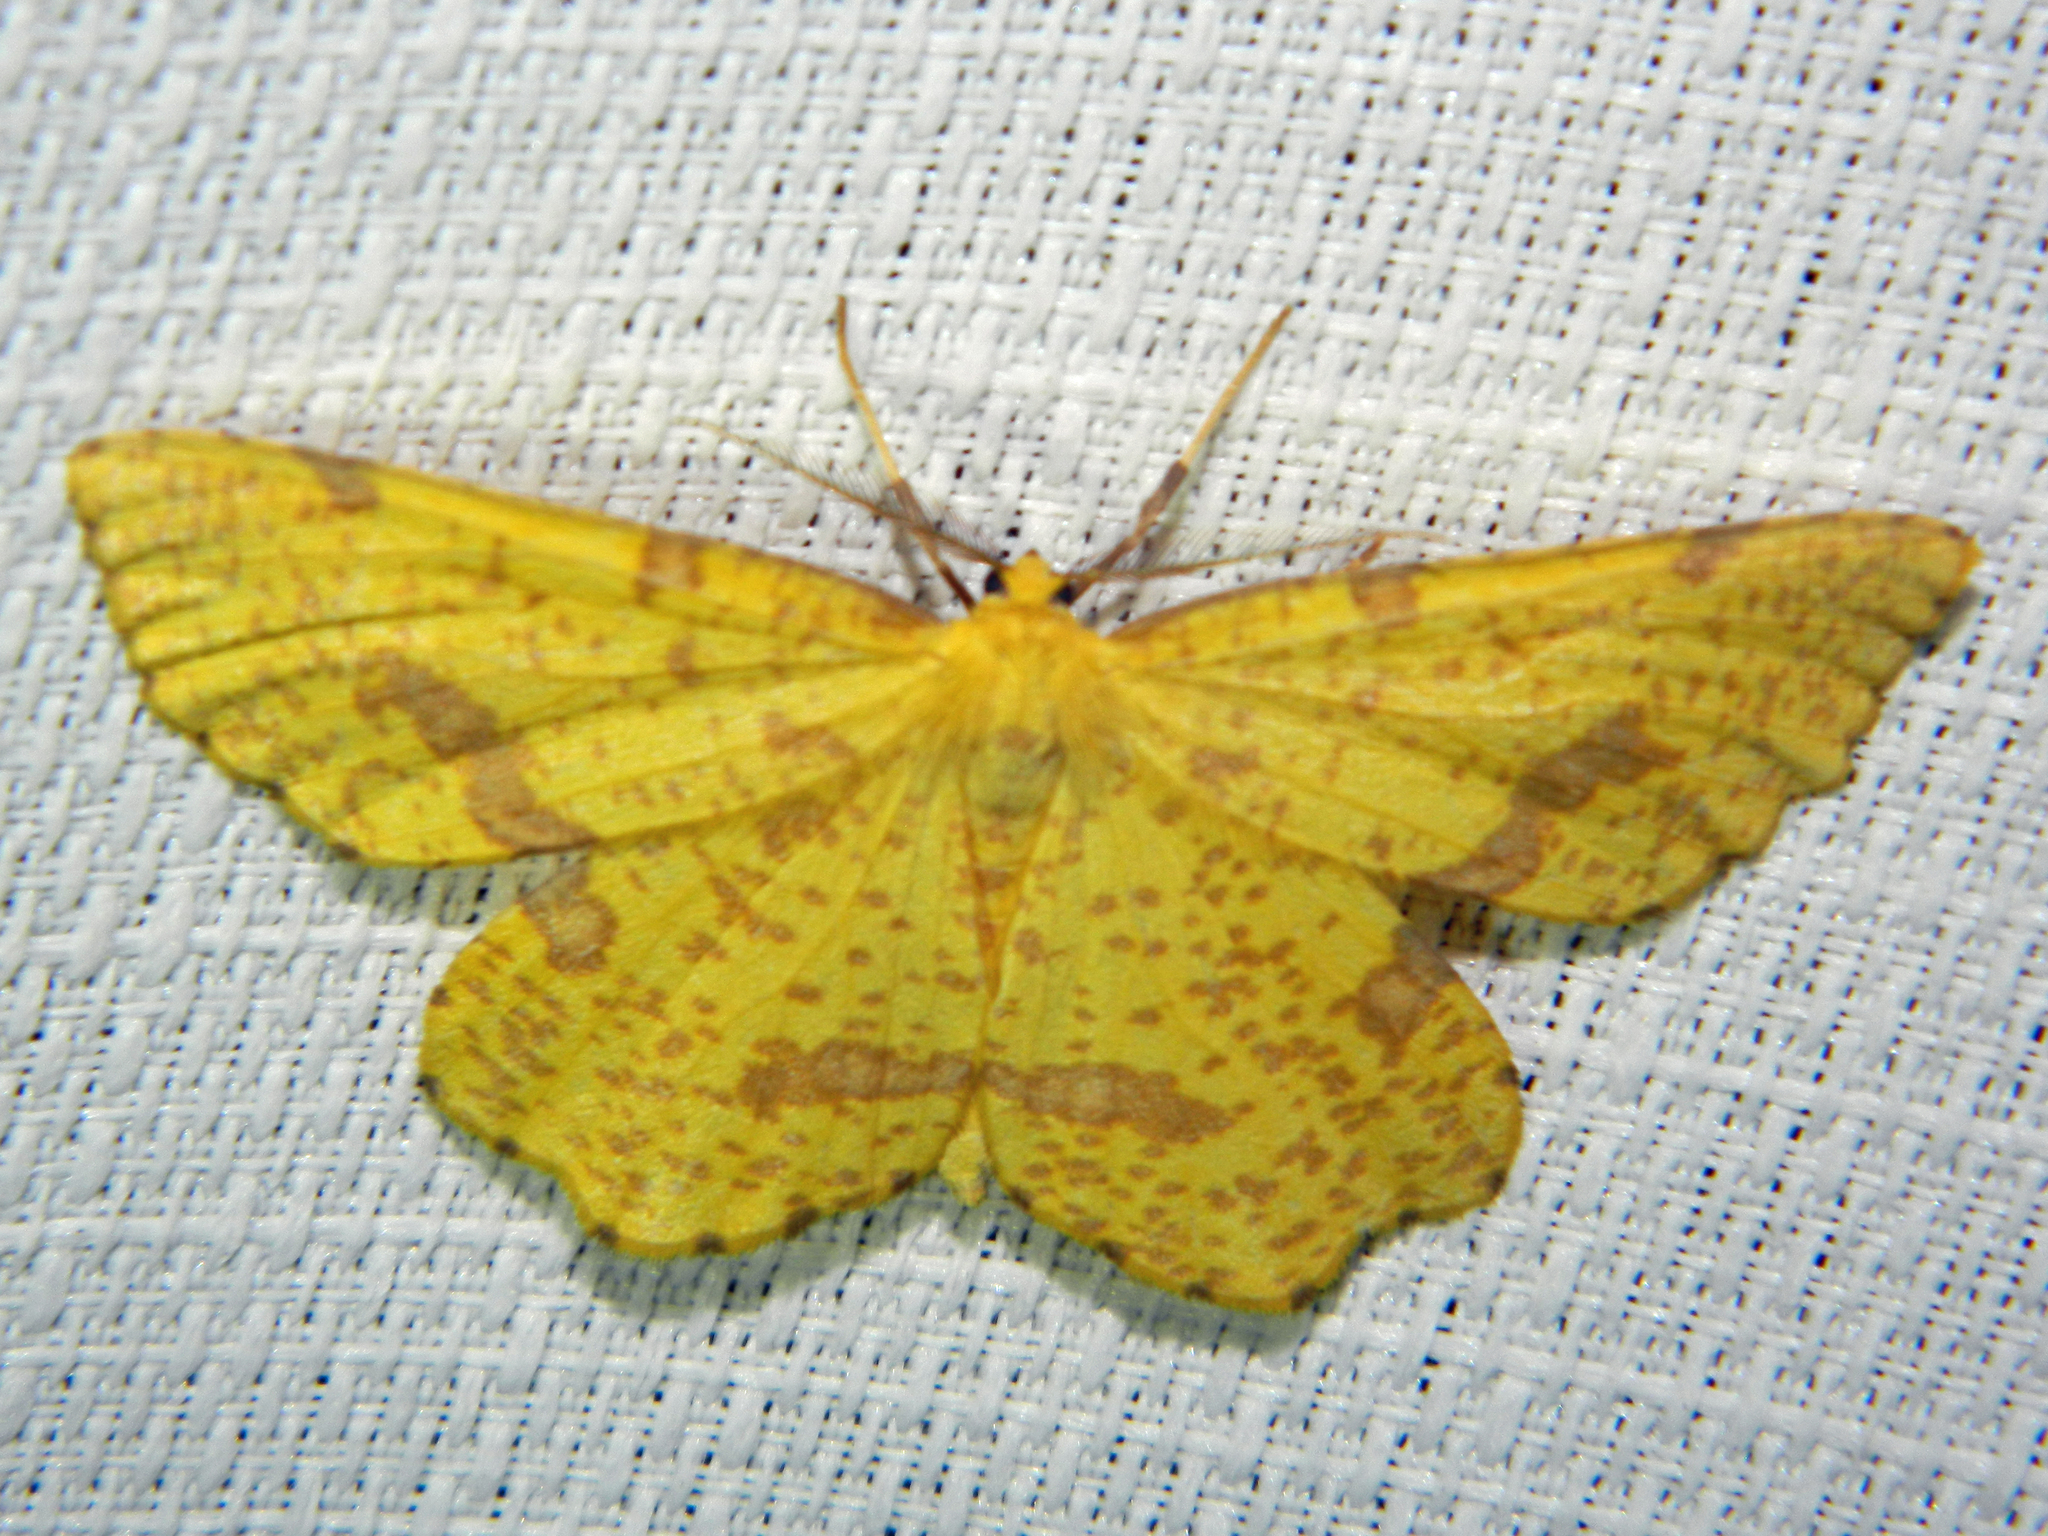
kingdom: Animalia
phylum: Arthropoda
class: Insecta
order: Lepidoptera
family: Geometridae
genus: Xanthotype
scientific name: Xanthotype
